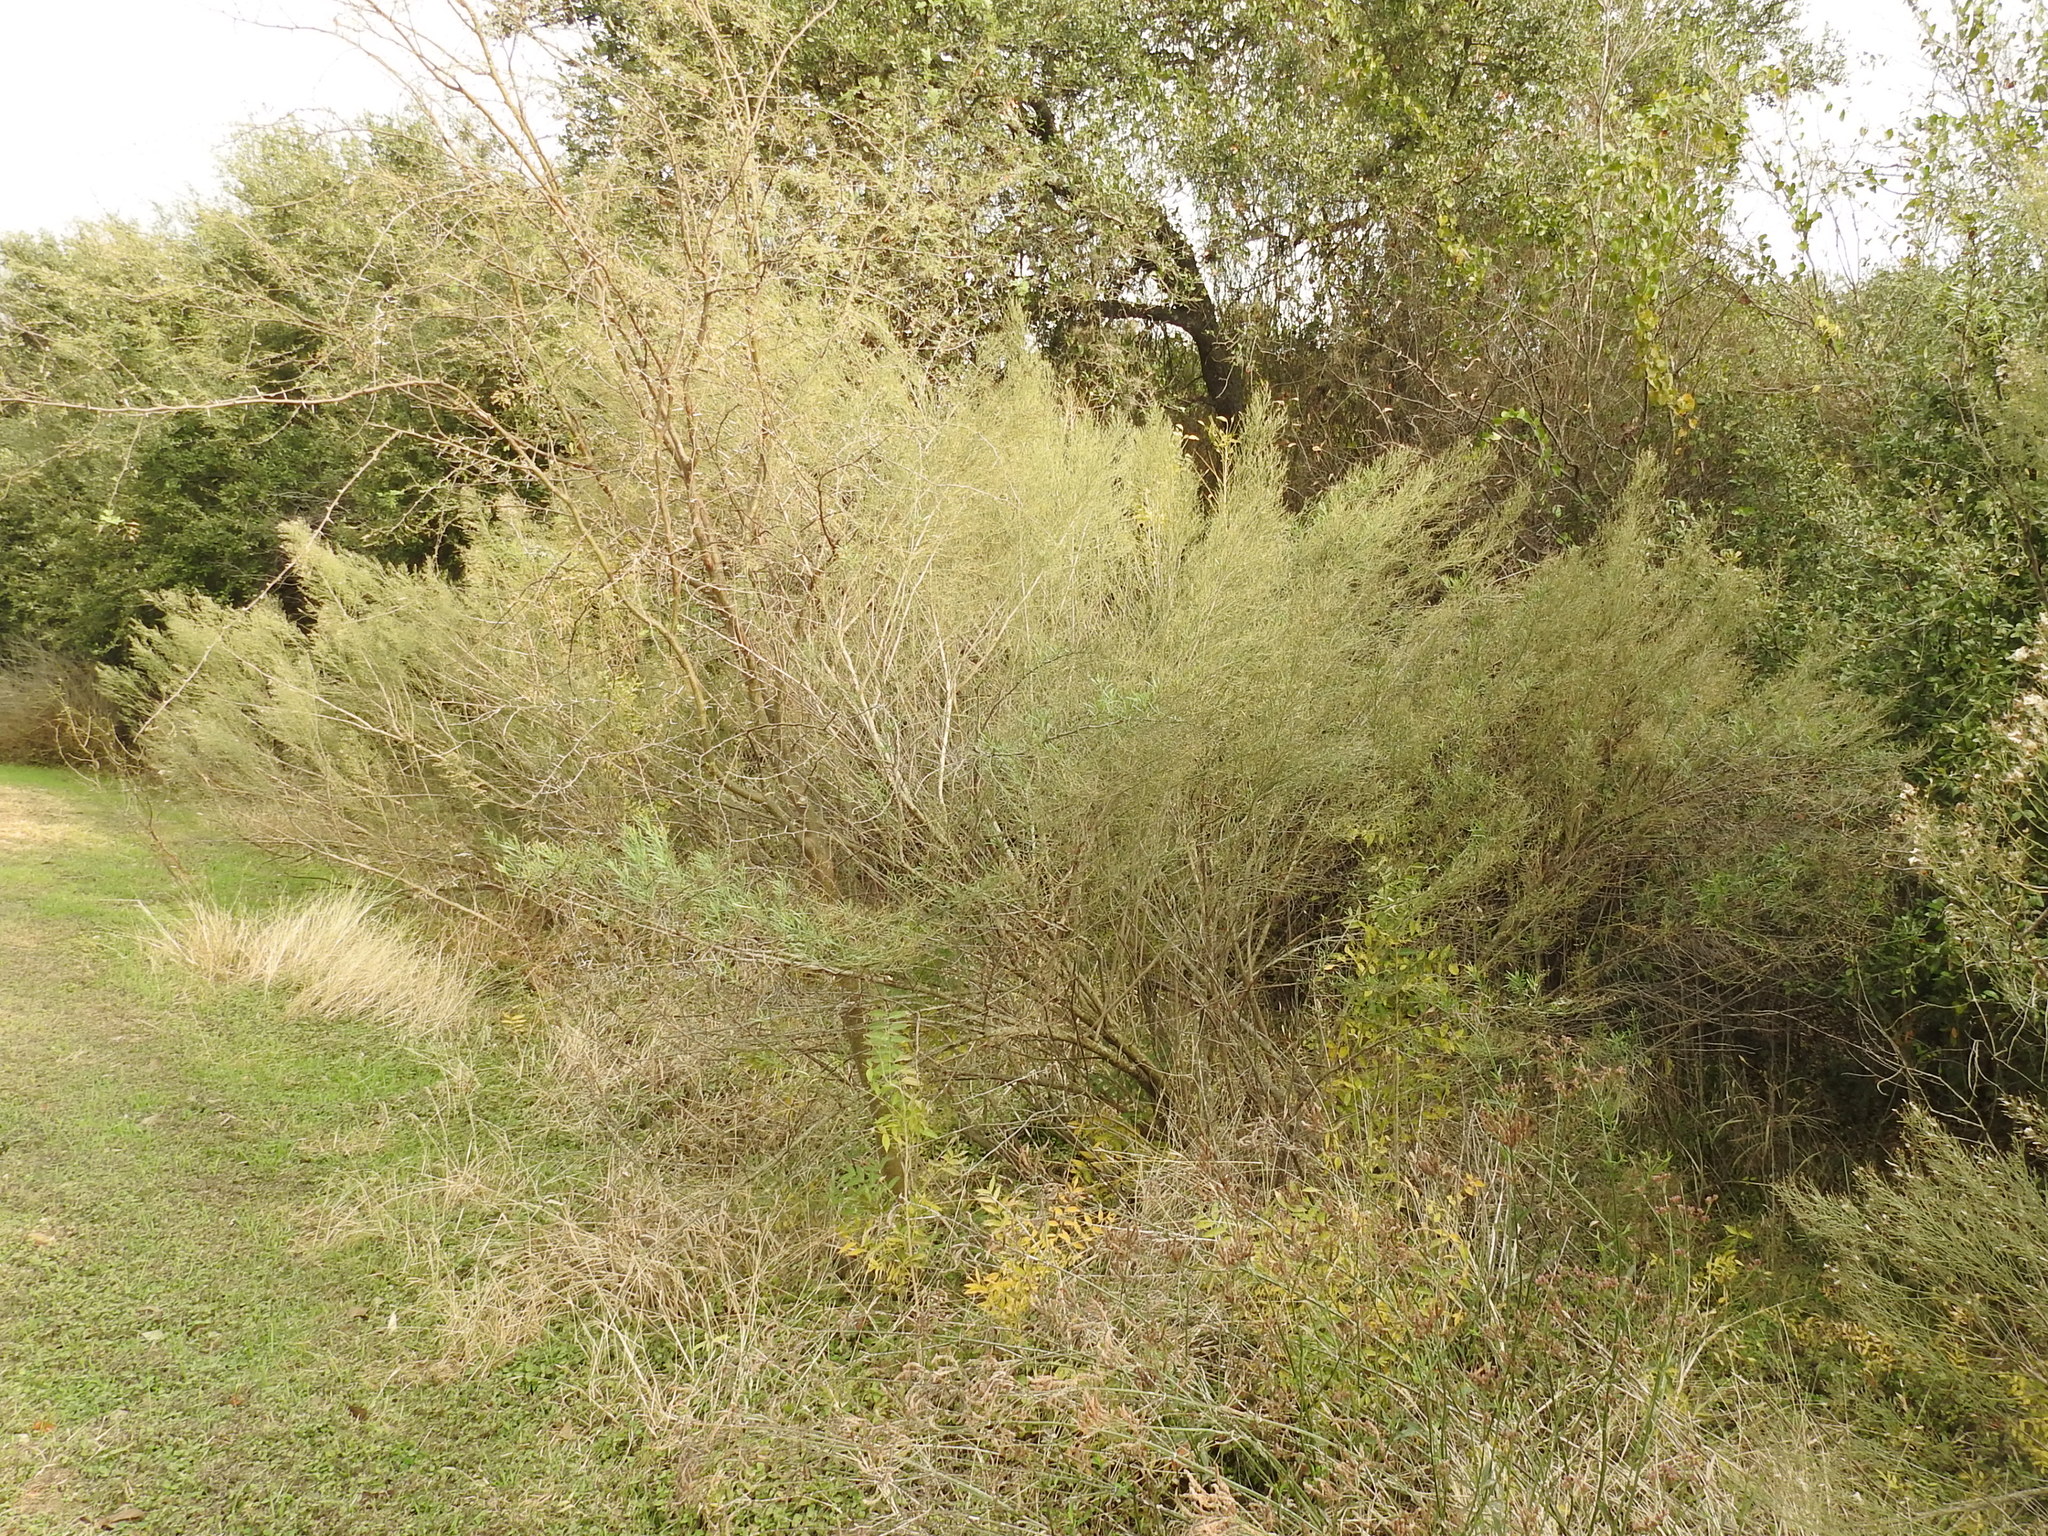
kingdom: Plantae
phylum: Tracheophyta
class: Magnoliopsida
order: Asterales
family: Asteraceae
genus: Baccharis
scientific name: Baccharis neglecta
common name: Roosevelt-weed
